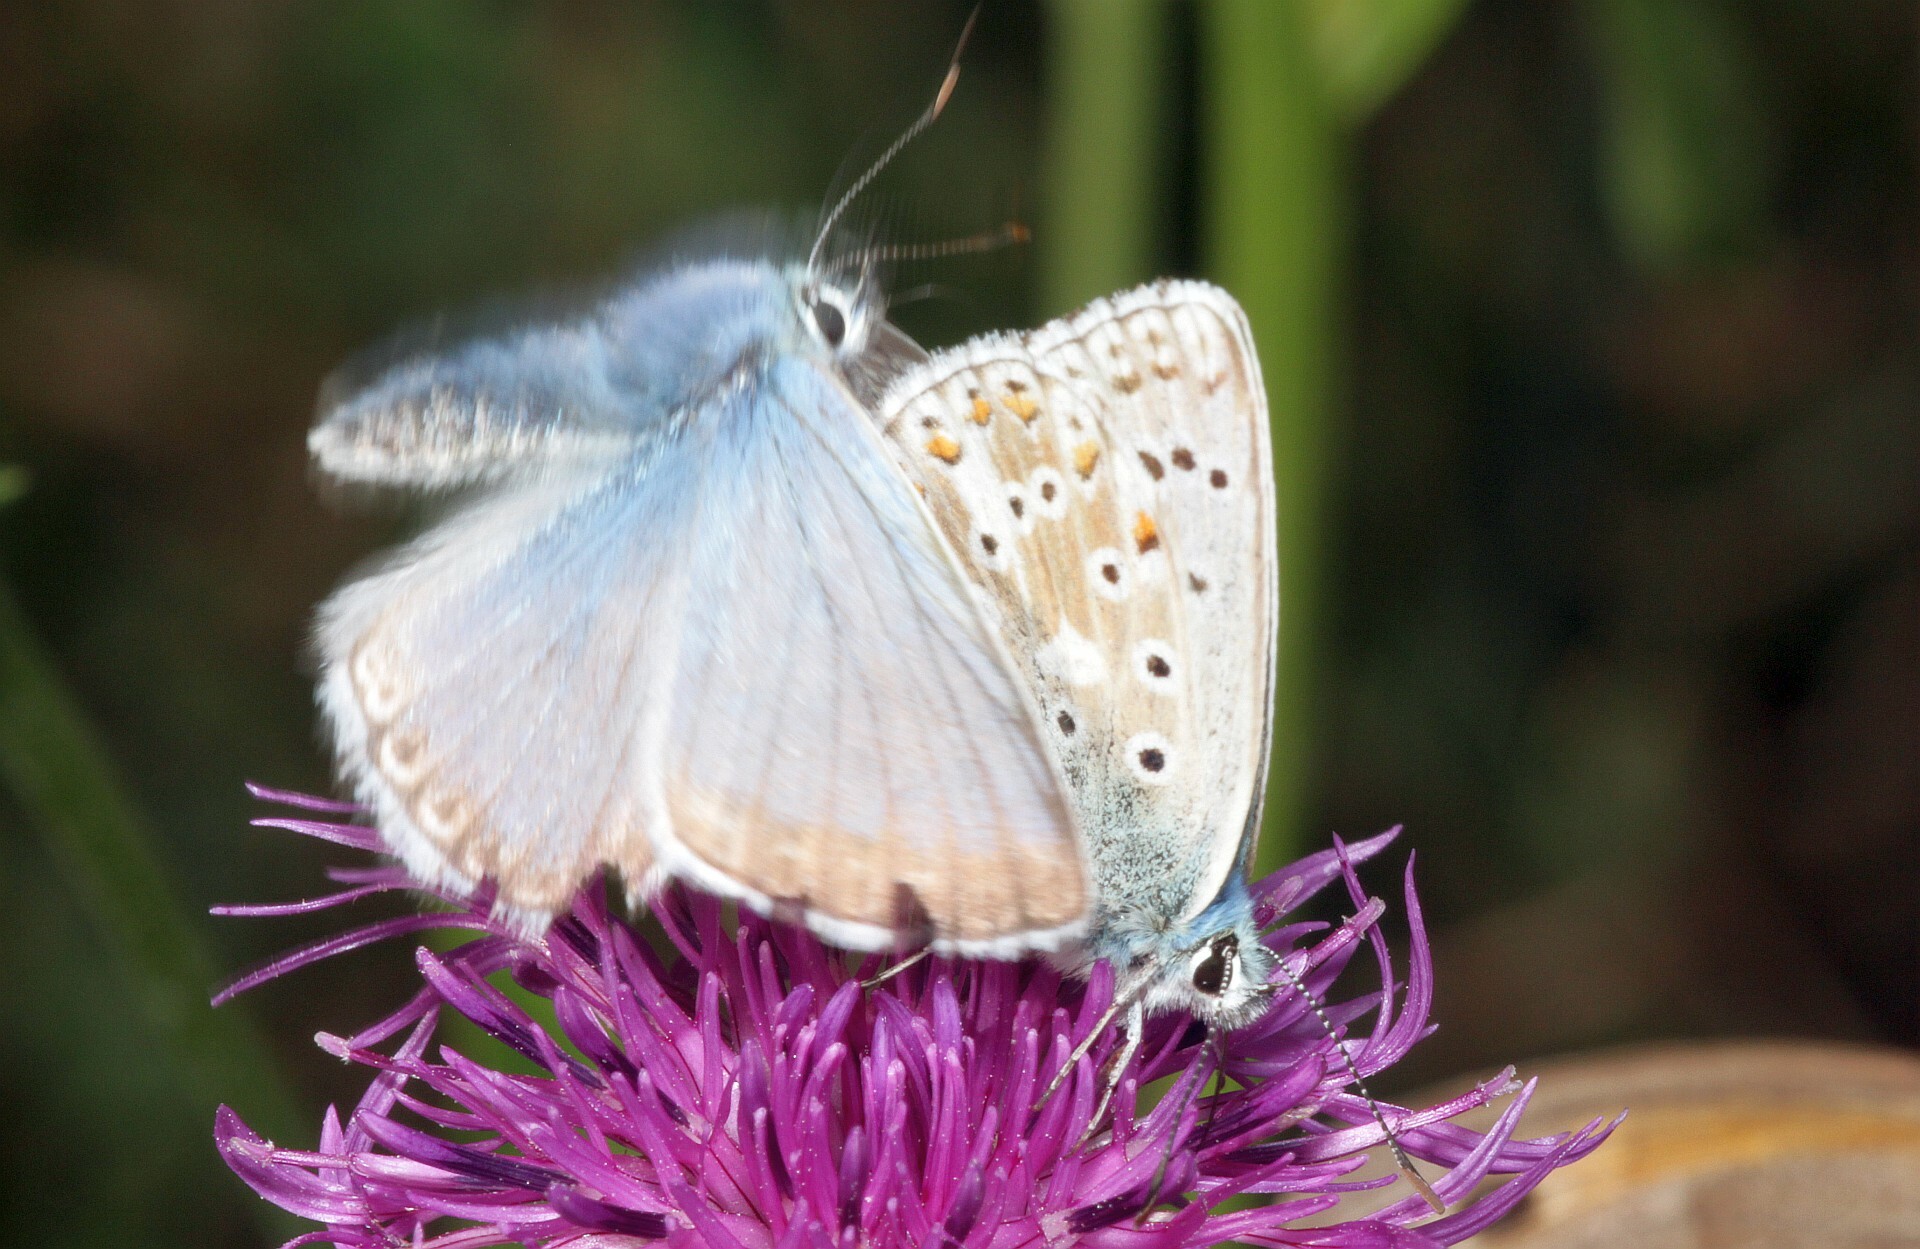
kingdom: Animalia
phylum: Arthropoda
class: Insecta
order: Lepidoptera
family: Lycaenidae
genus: Lysandra
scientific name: Lysandra coridon
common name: Chalkhill blue
